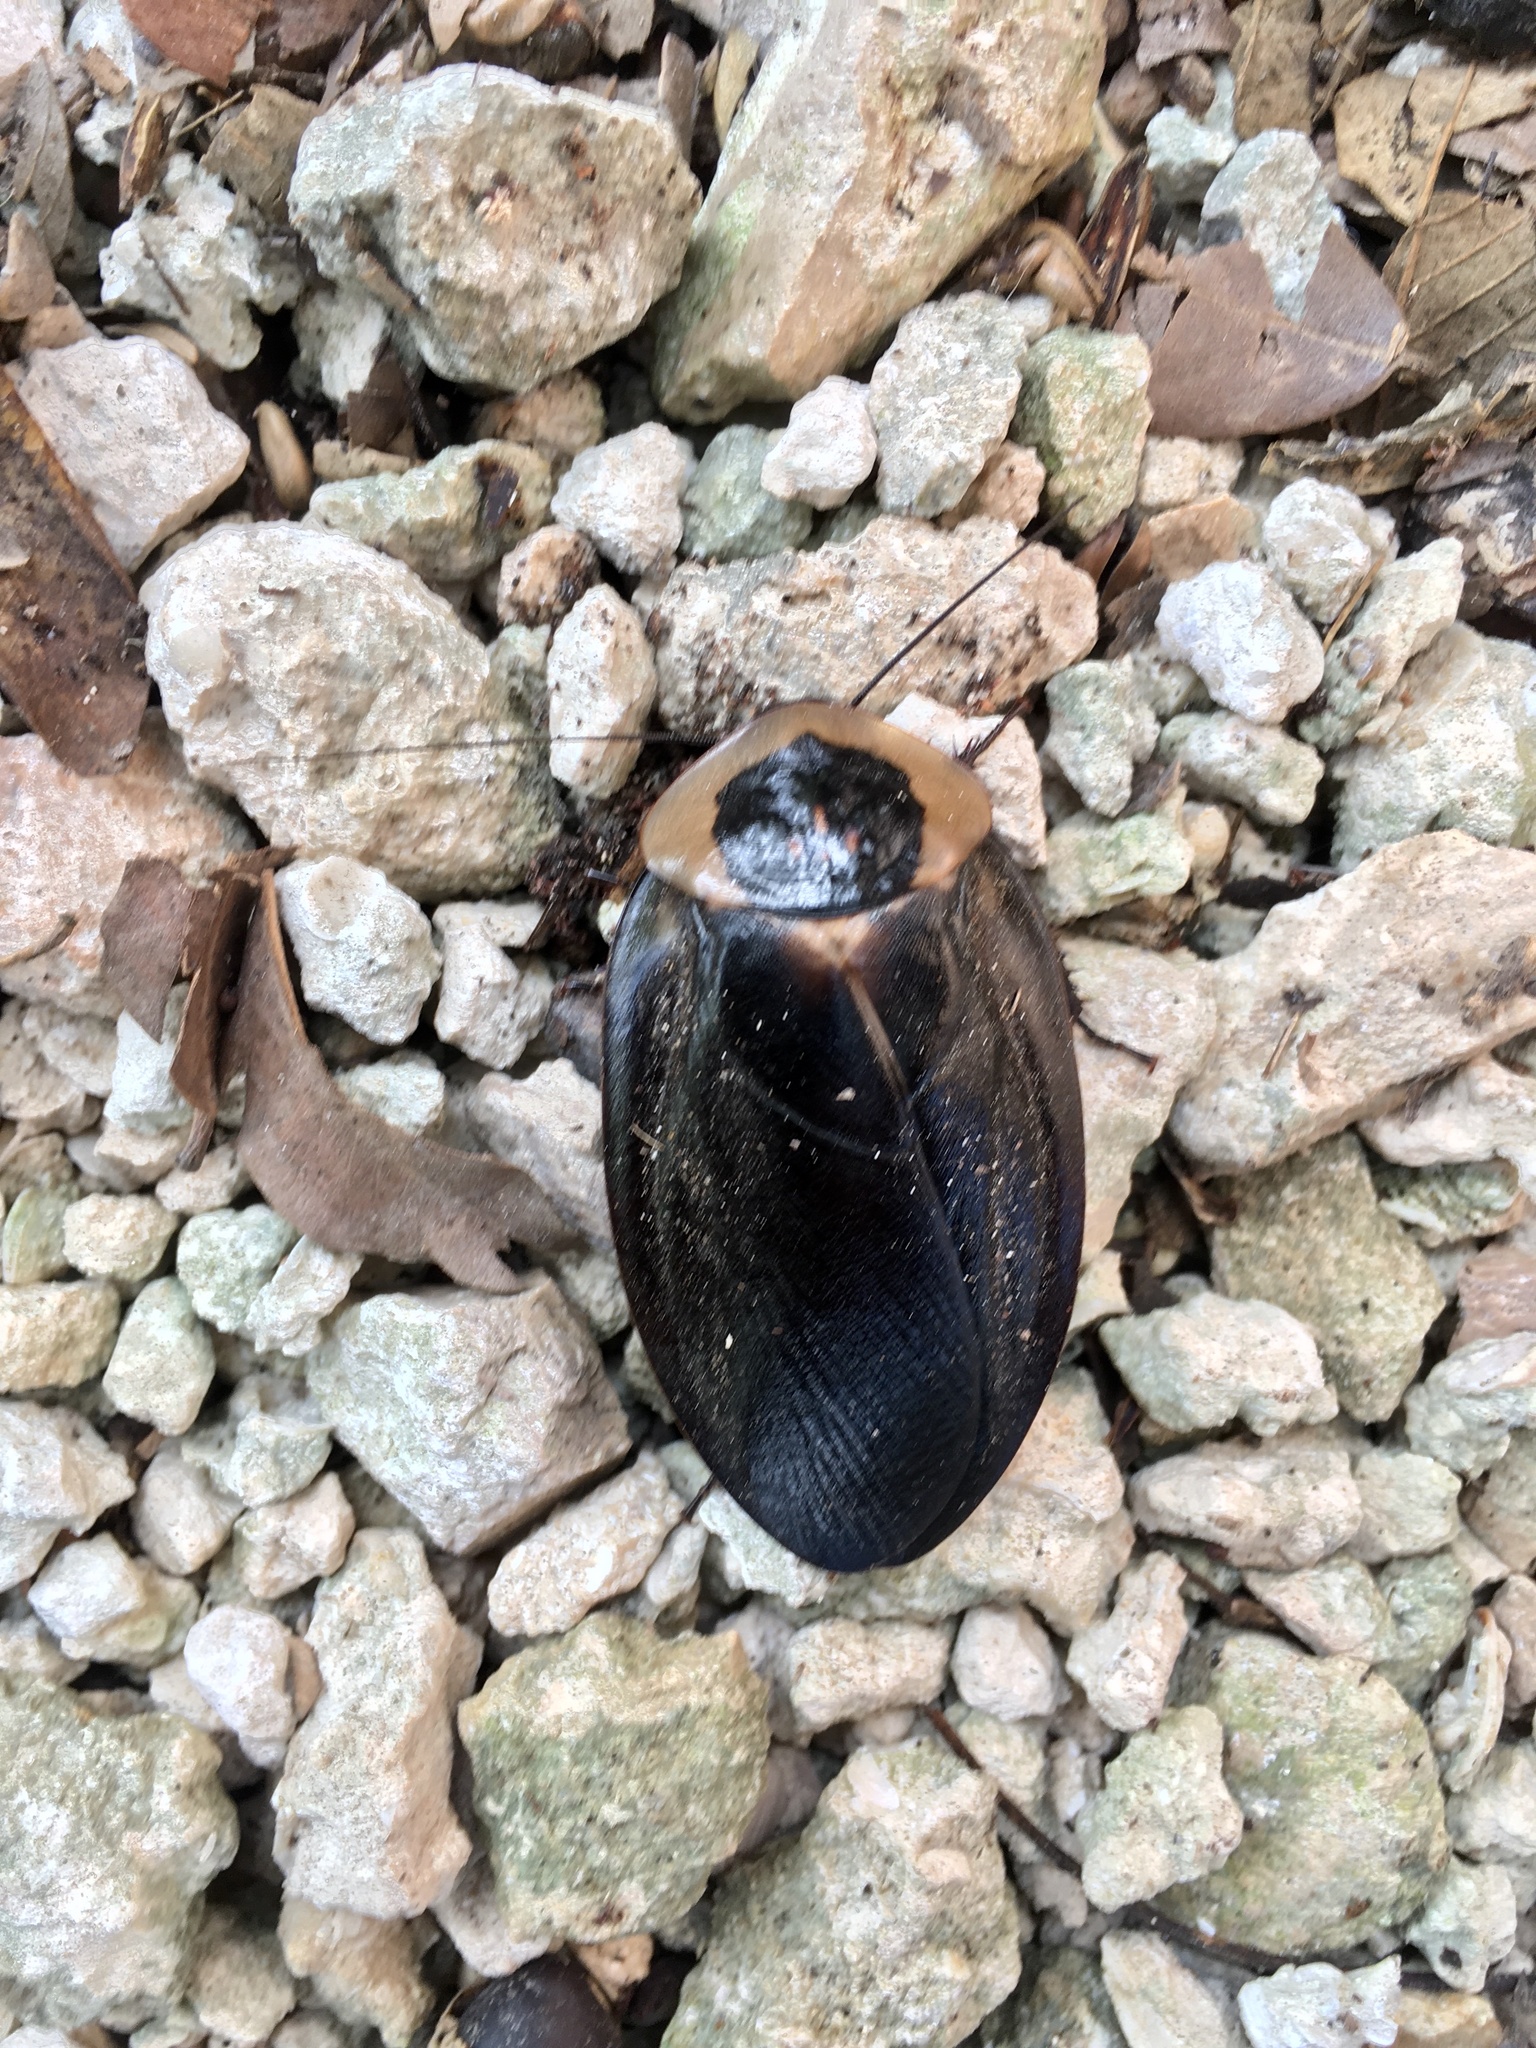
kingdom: Animalia
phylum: Arthropoda
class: Insecta
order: Blattodea
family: Blaberidae
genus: Blaberus
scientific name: Blaberus craniifer
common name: Death's head cockroach
